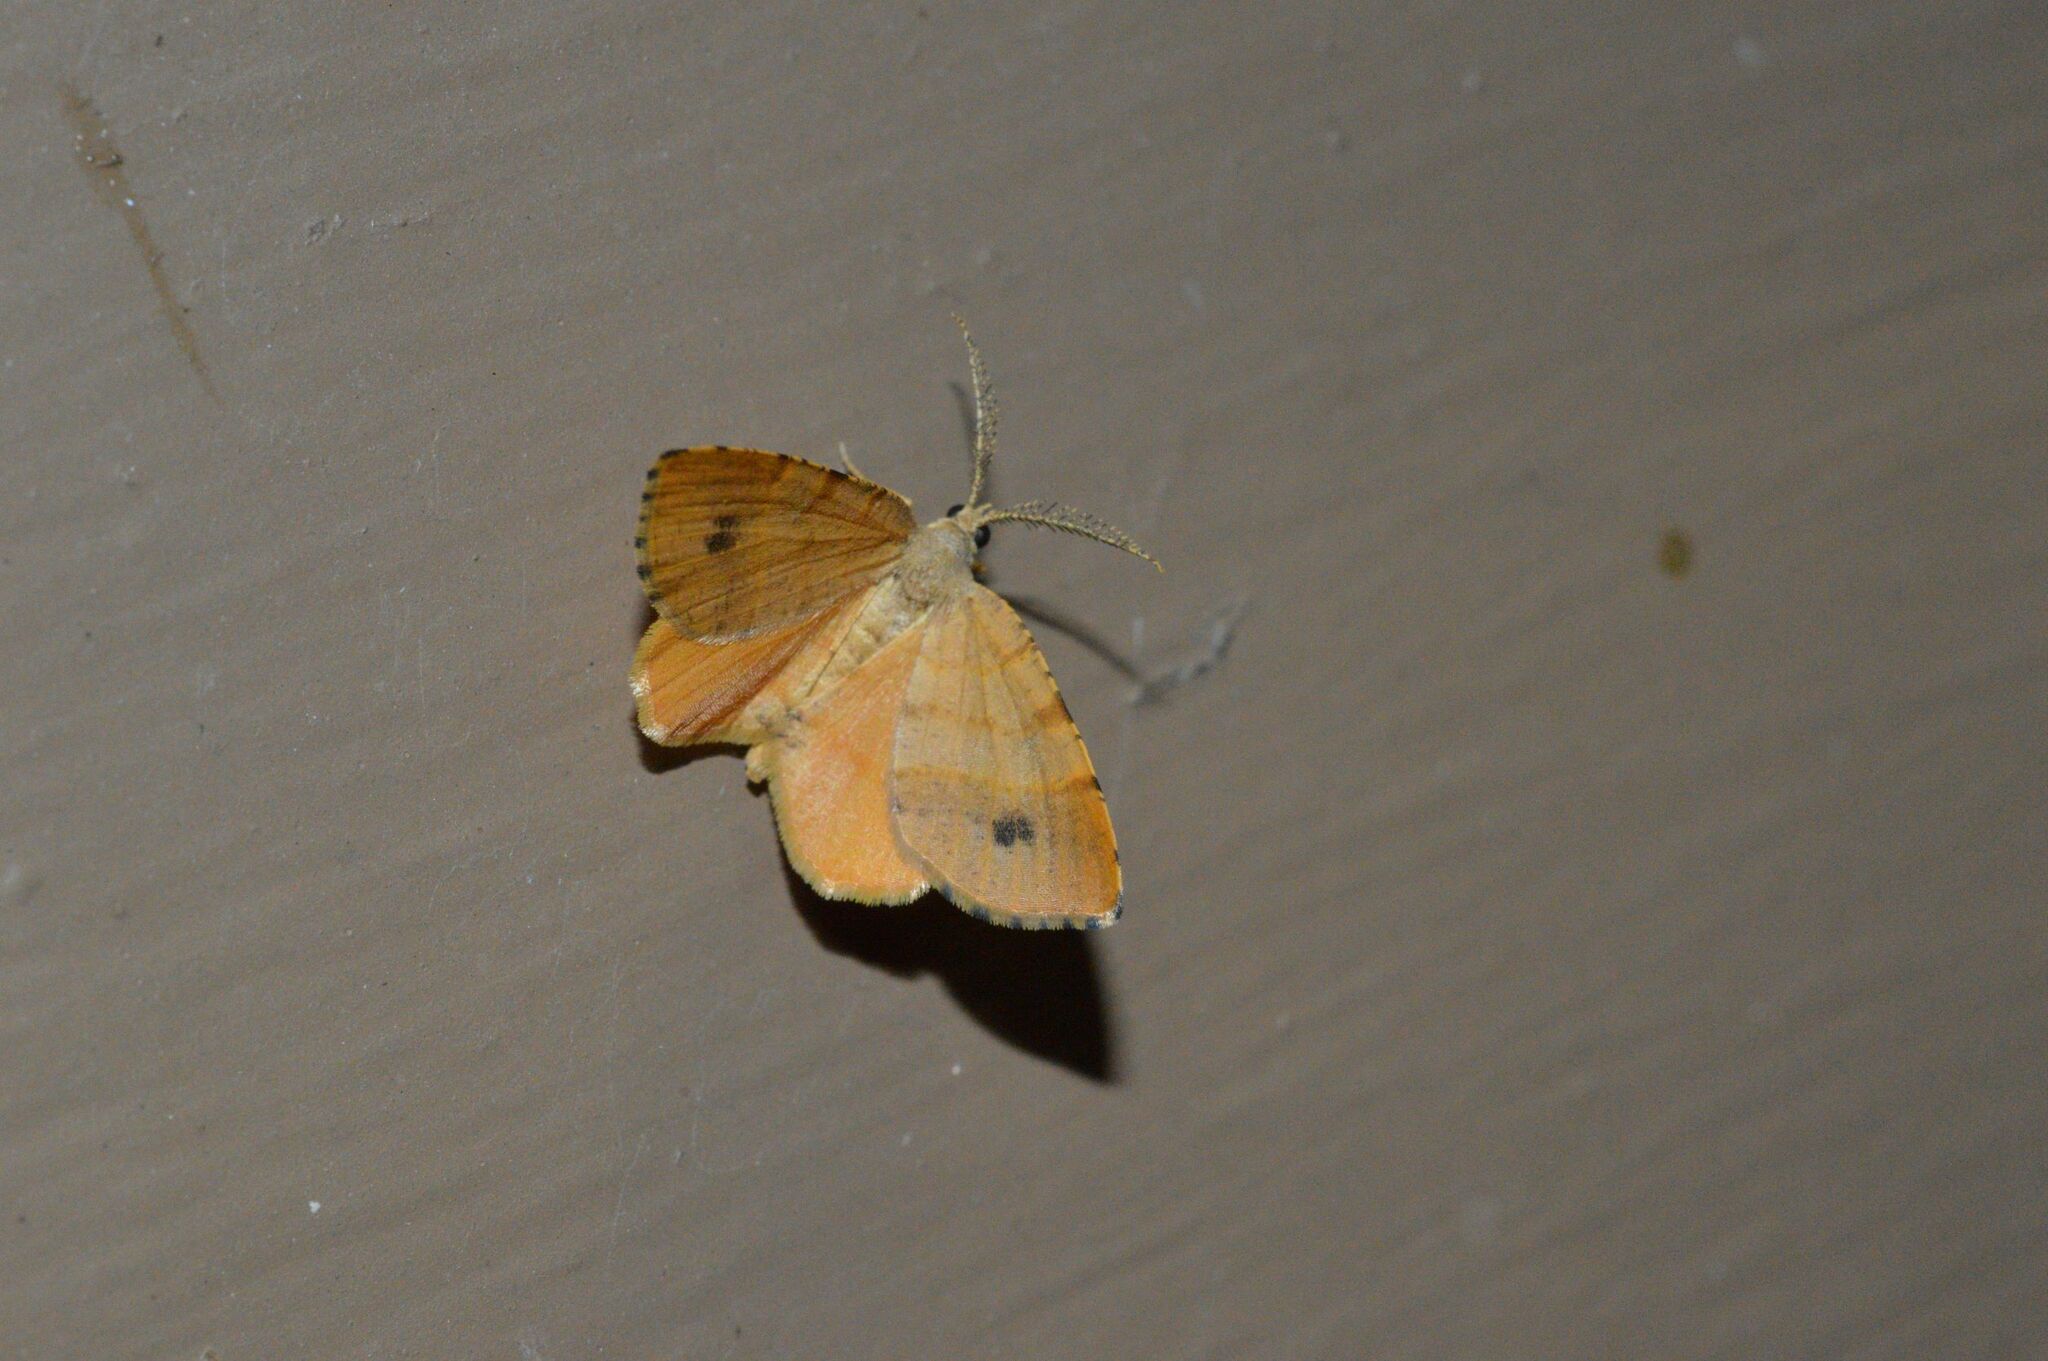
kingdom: Animalia
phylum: Arthropoda
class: Insecta
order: Lepidoptera
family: Geometridae
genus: Mellilla
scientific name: Mellilla xanthometata
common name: Orange wing moth
